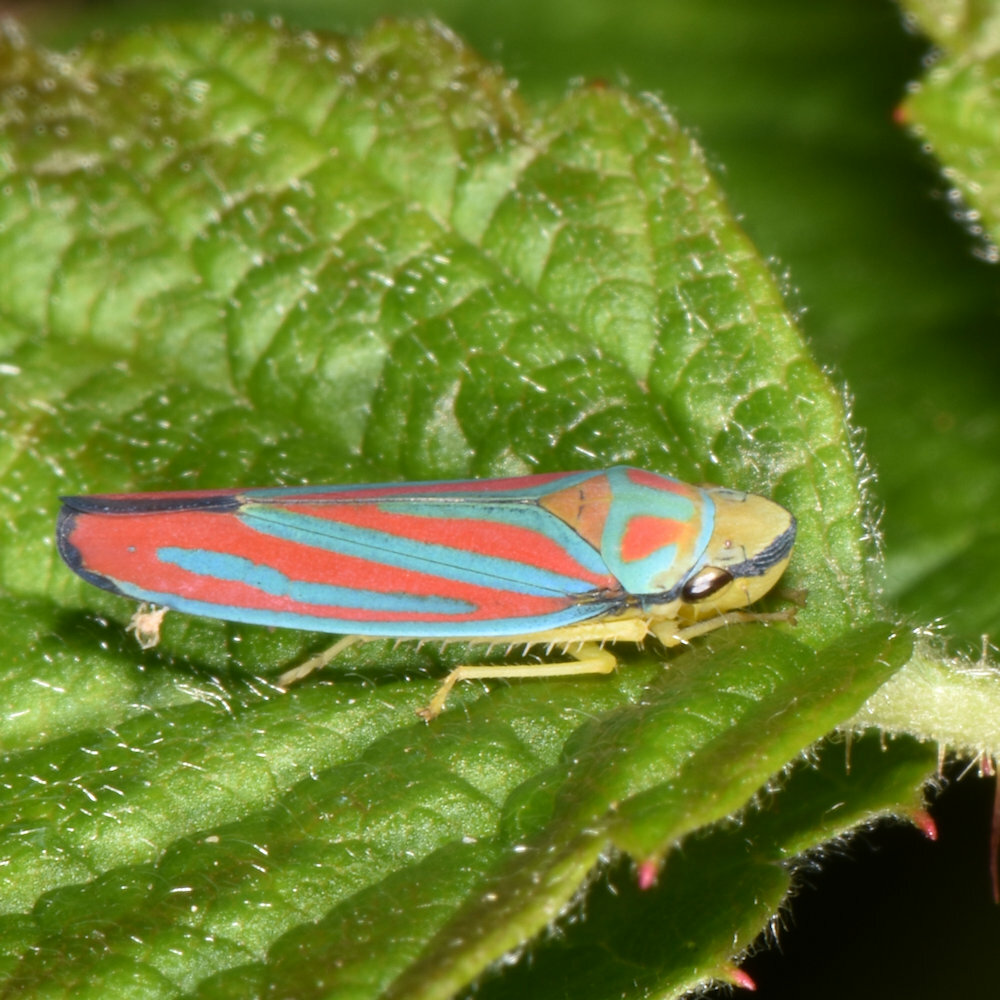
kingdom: Animalia
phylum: Arthropoda
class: Insecta
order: Hemiptera
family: Cicadellidae
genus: Graphocephala
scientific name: Graphocephala coccinea
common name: Candy-striped leafhopper
